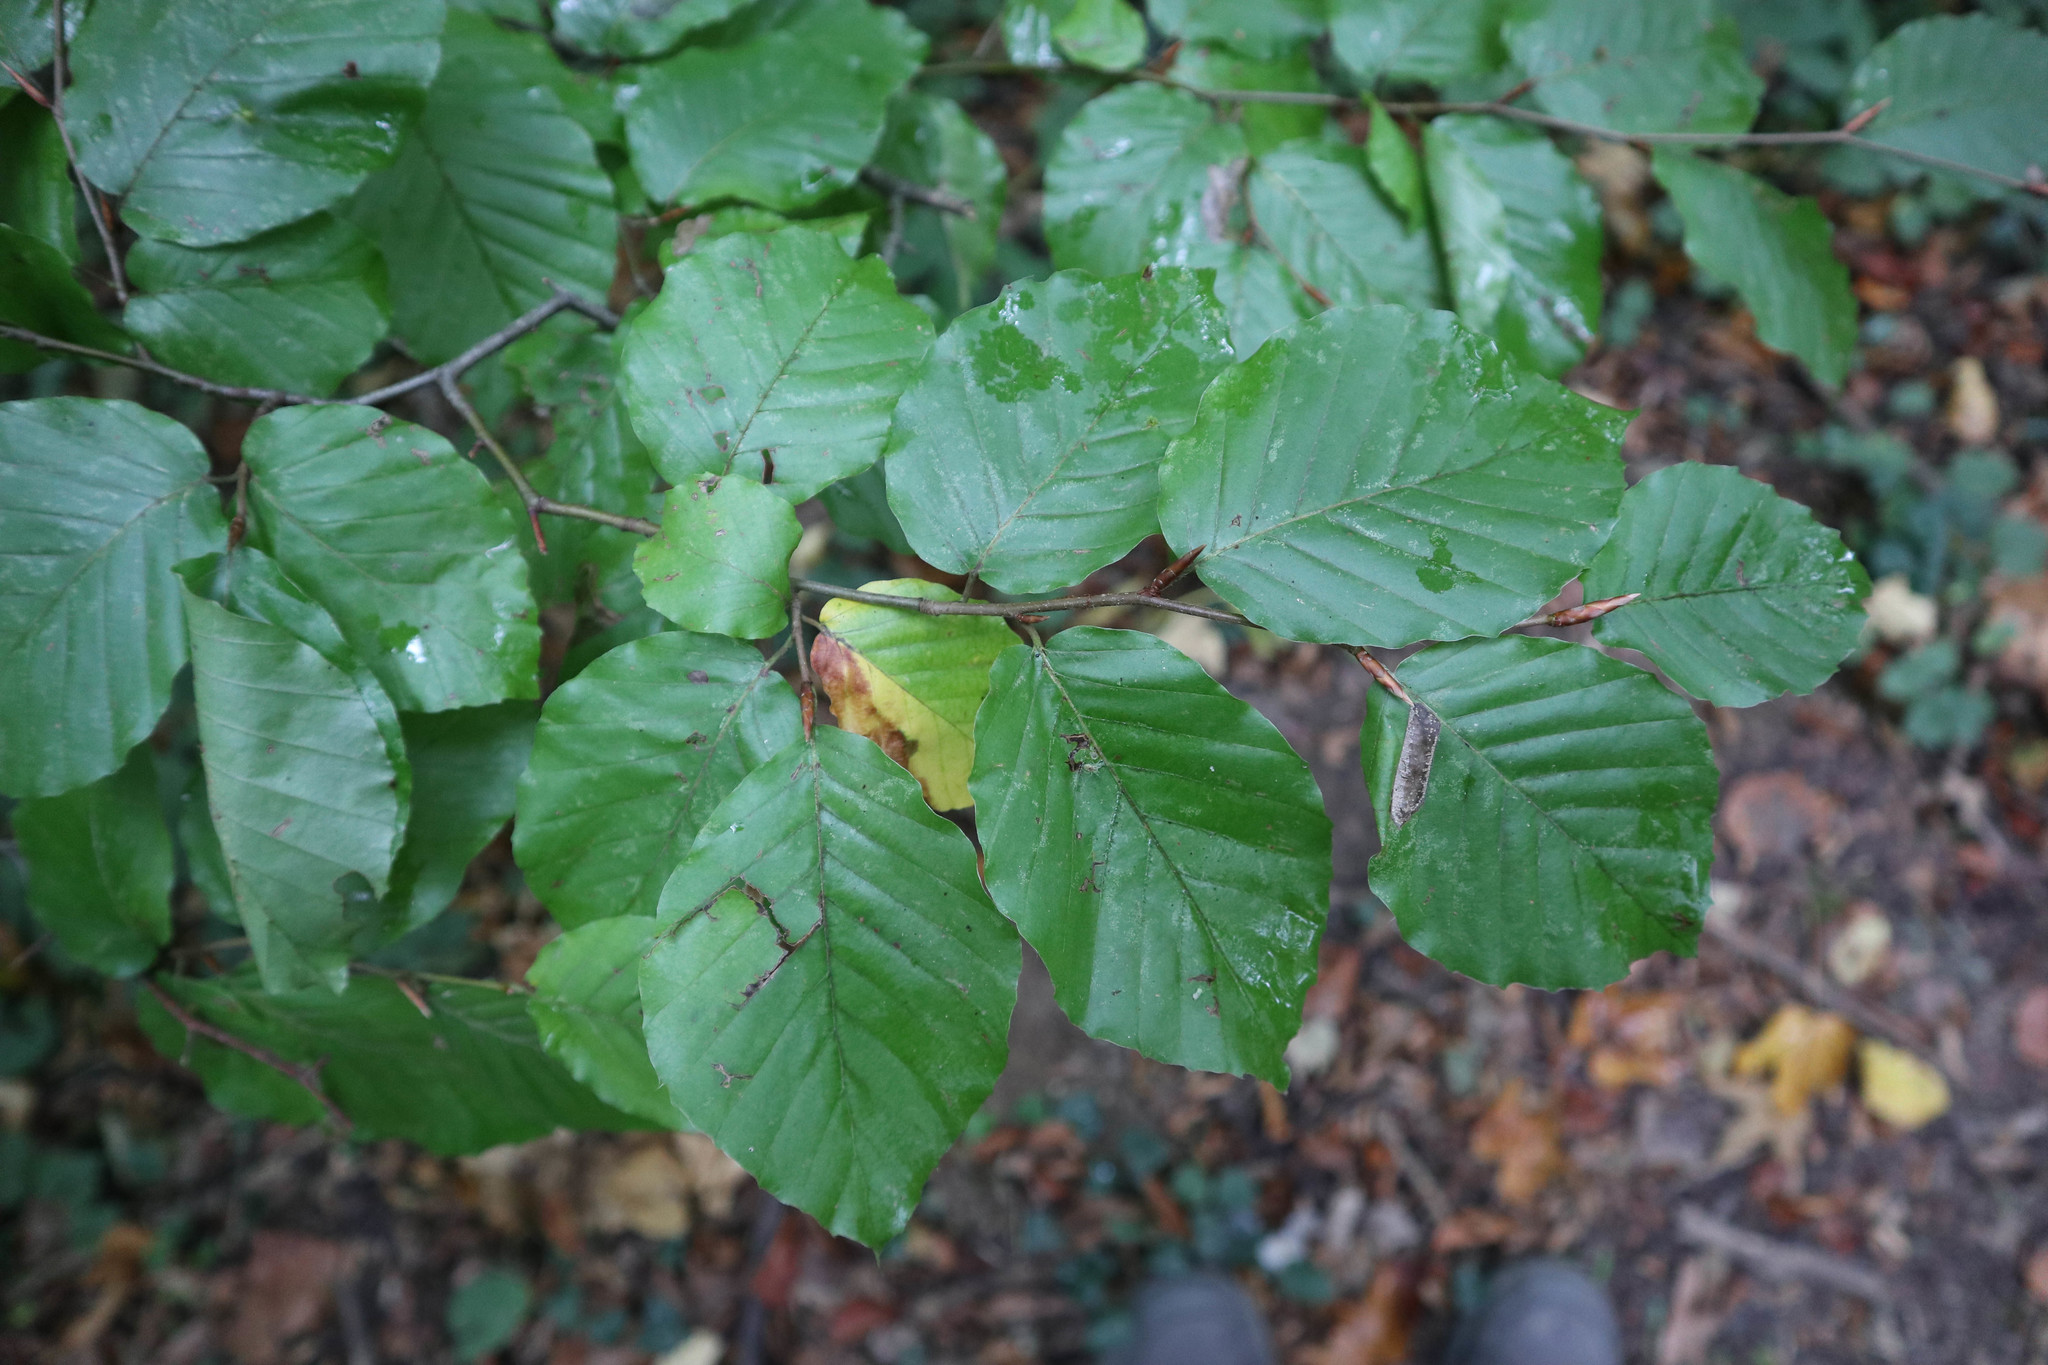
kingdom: Plantae
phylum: Tracheophyta
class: Magnoliopsida
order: Fagales
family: Fagaceae
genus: Fagus
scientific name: Fagus sylvatica
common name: Beech
